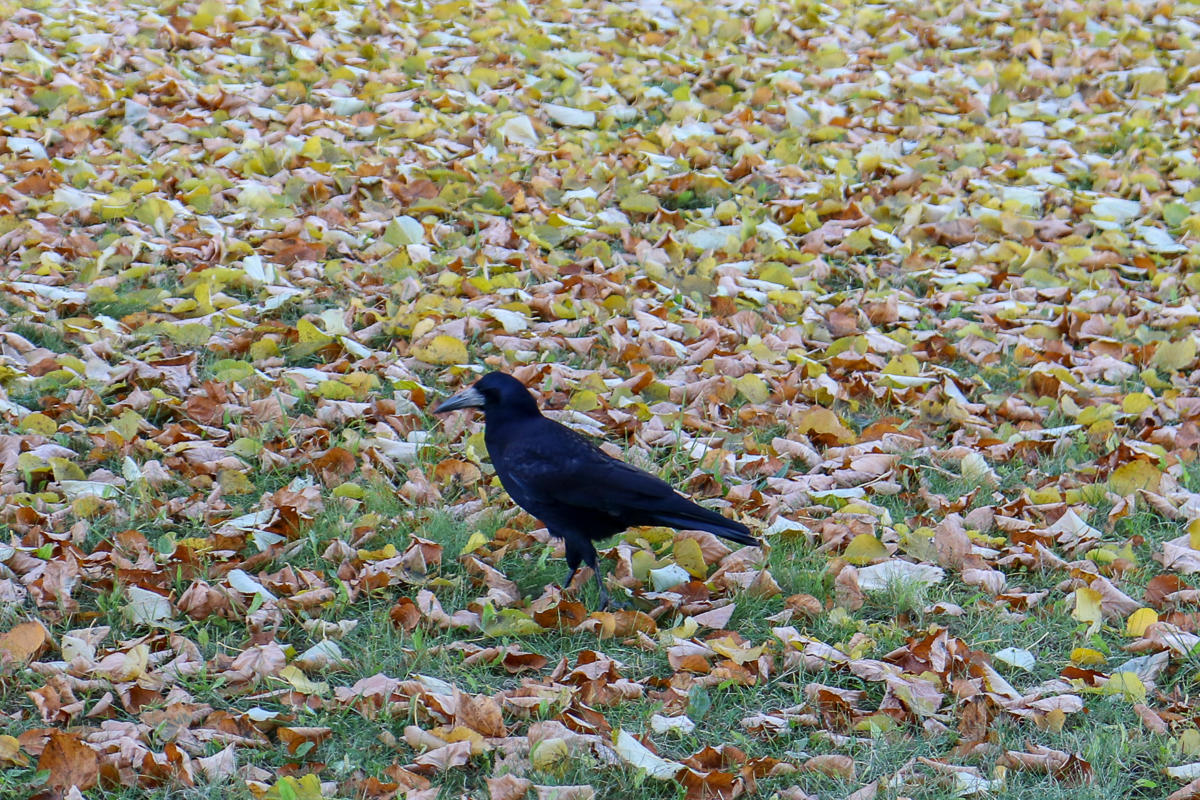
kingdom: Animalia
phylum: Chordata
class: Aves
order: Passeriformes
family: Corvidae
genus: Corvus
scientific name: Corvus frugilegus
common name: Rook
